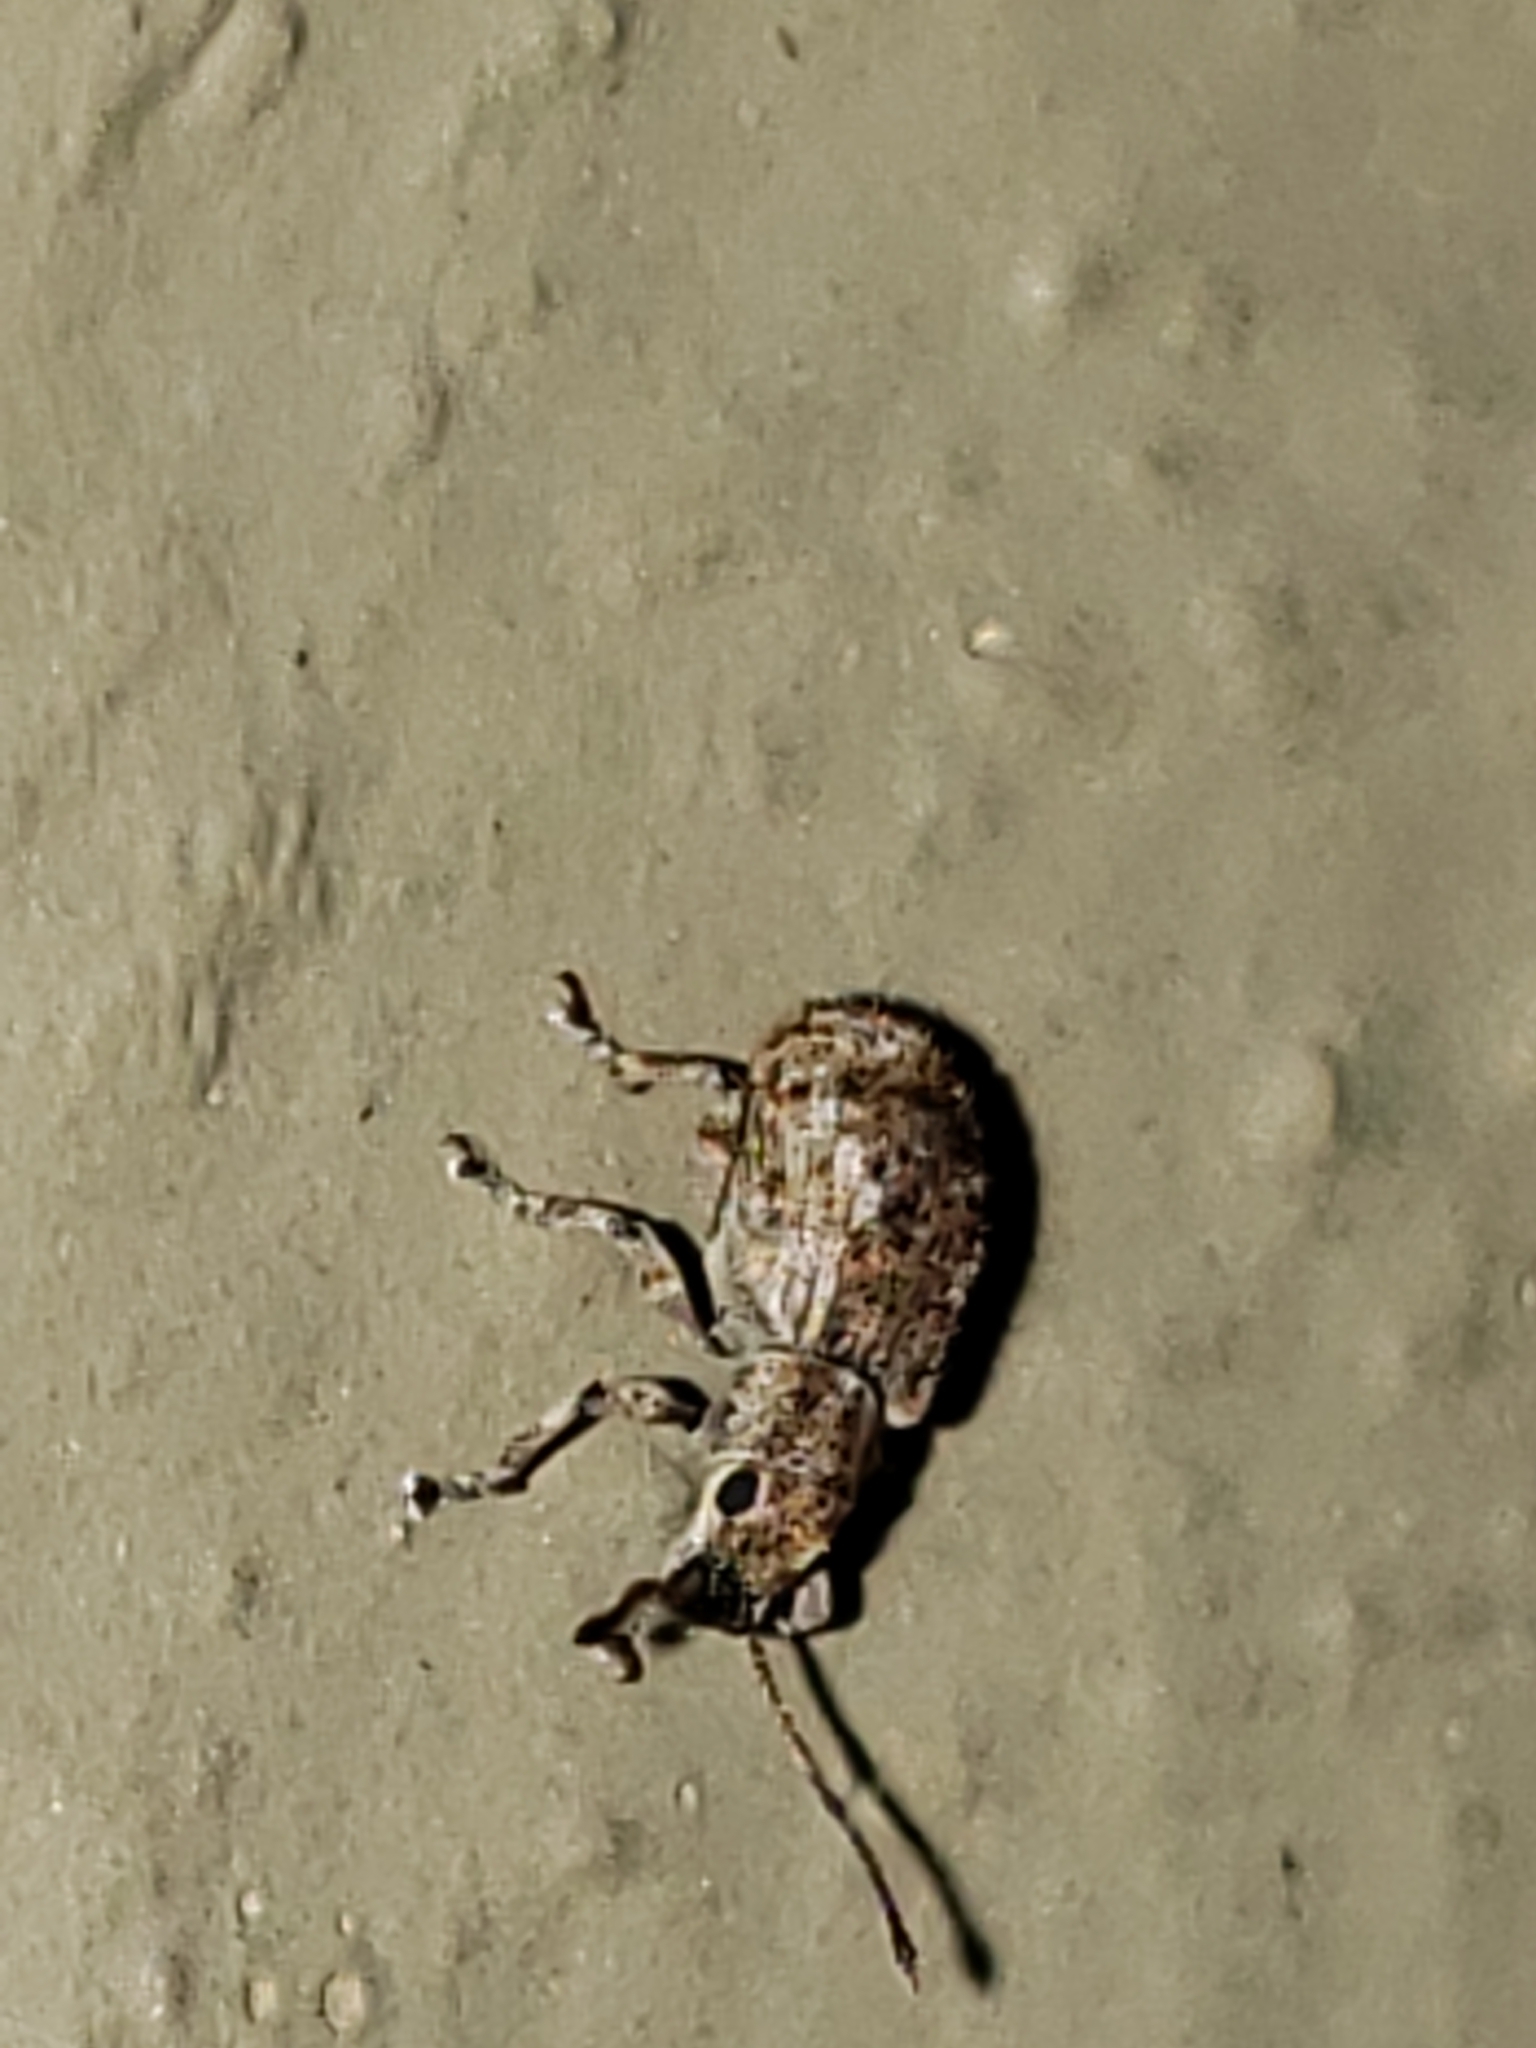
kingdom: Animalia
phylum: Arthropoda
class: Insecta
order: Coleoptera
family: Curculionidae
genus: Pseudoedophrys
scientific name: Pseudoedophrys hilleri
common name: Weevil
